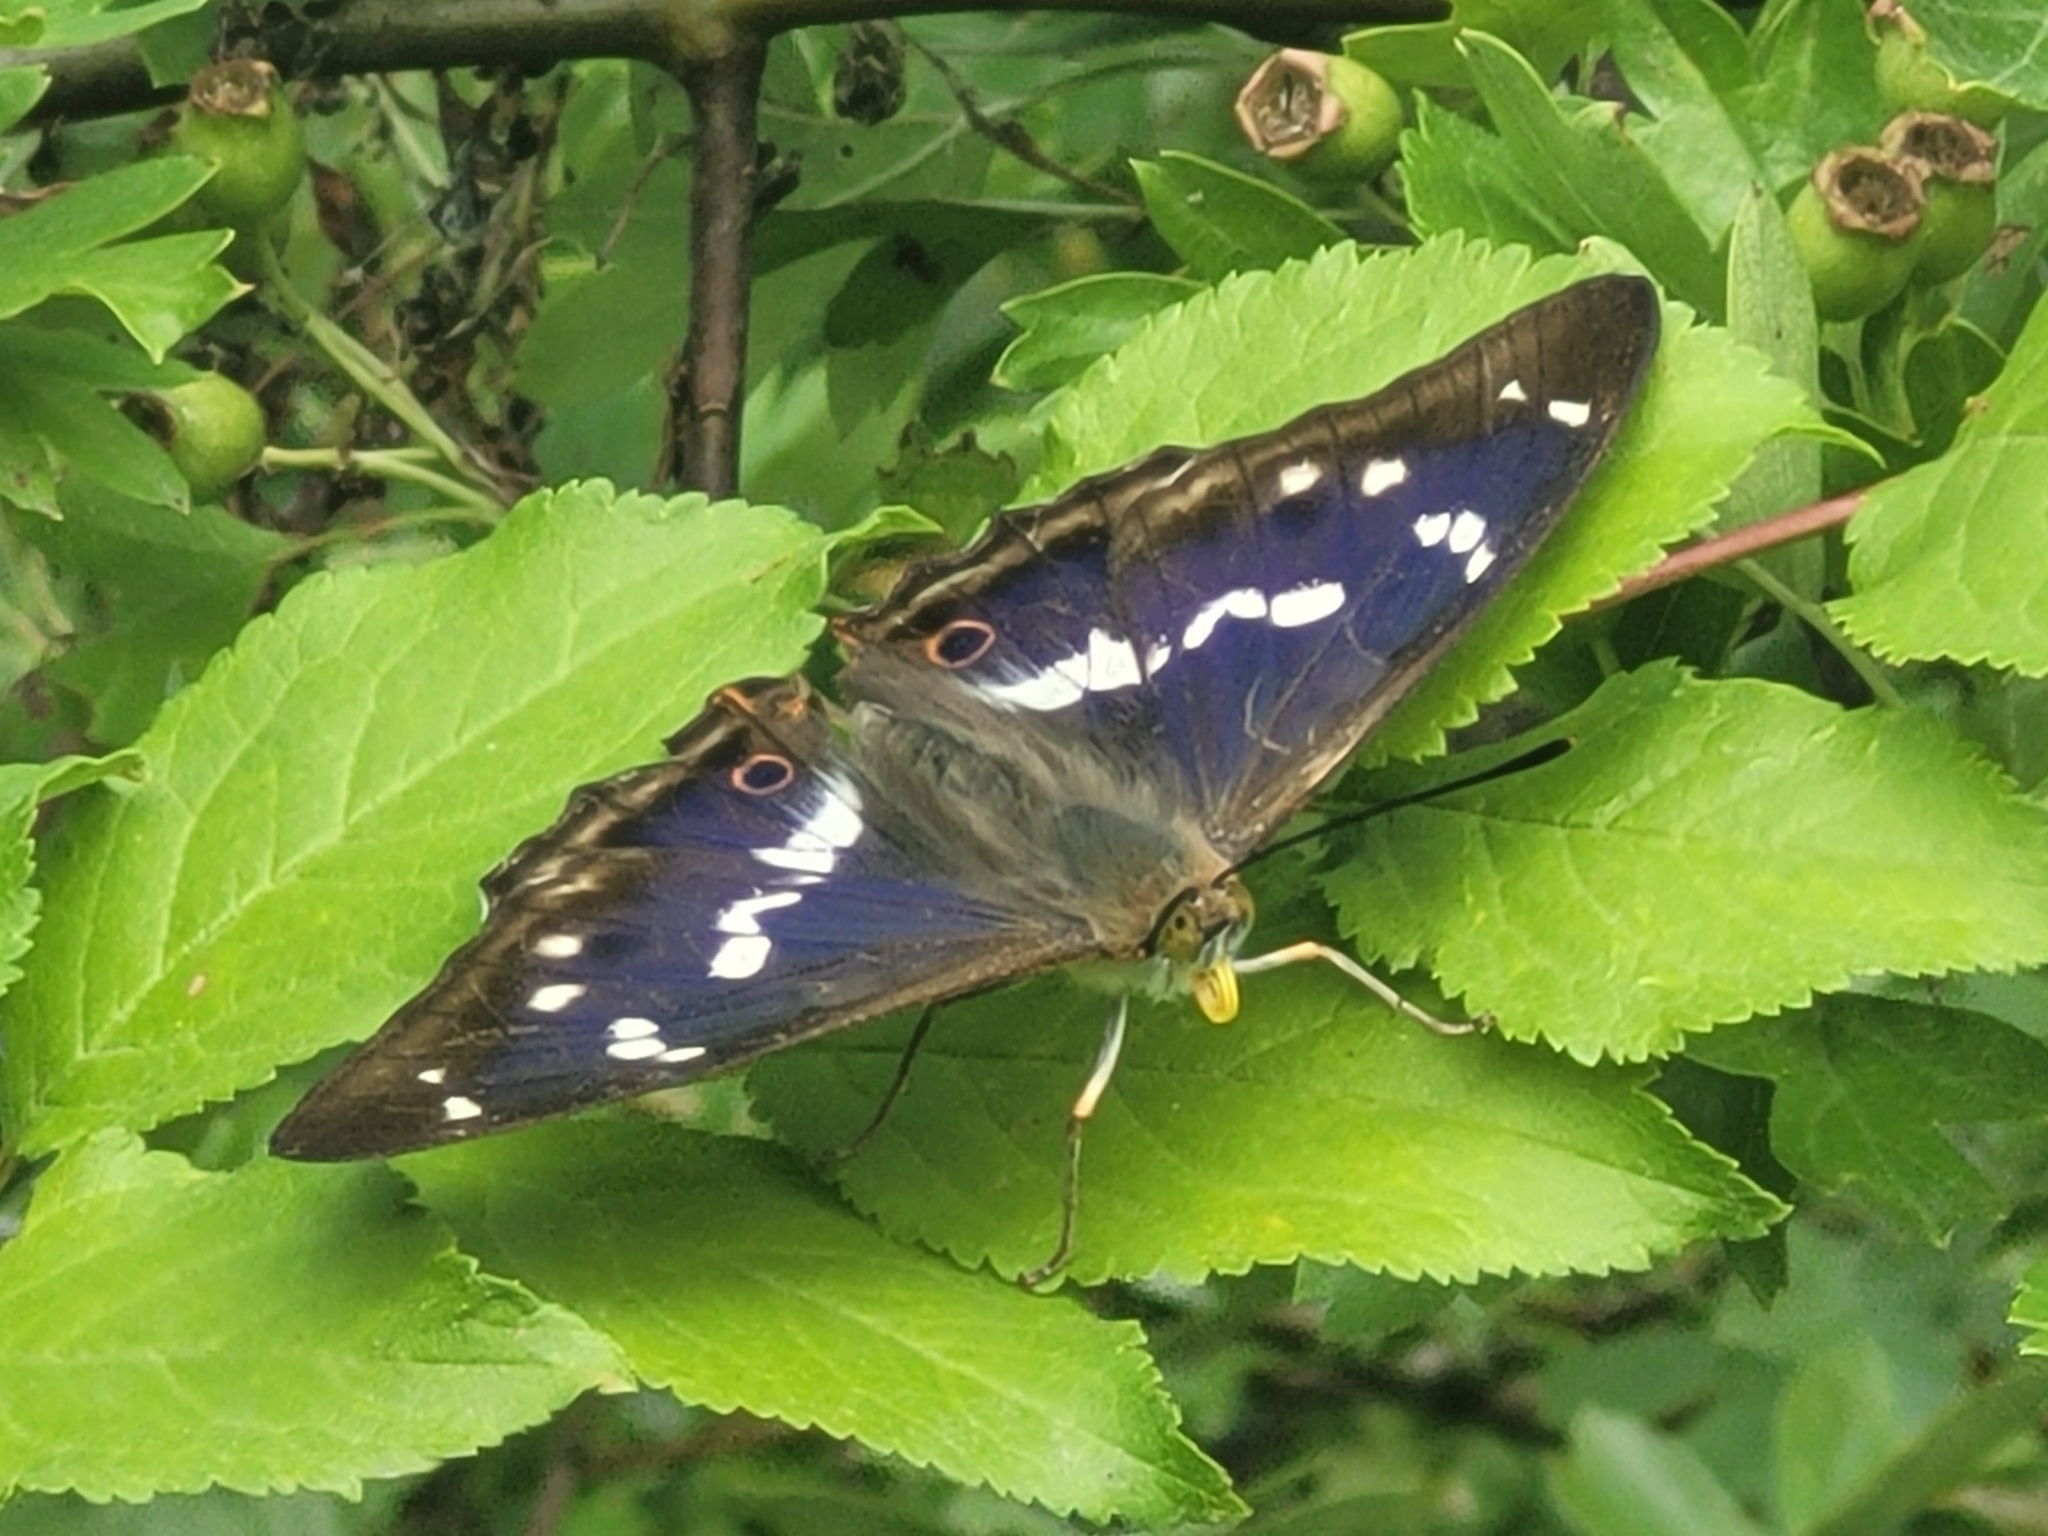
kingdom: Animalia
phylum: Arthropoda
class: Insecta
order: Lepidoptera
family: Nymphalidae
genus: Apatura
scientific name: Apatura iris
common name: Purple emperor
